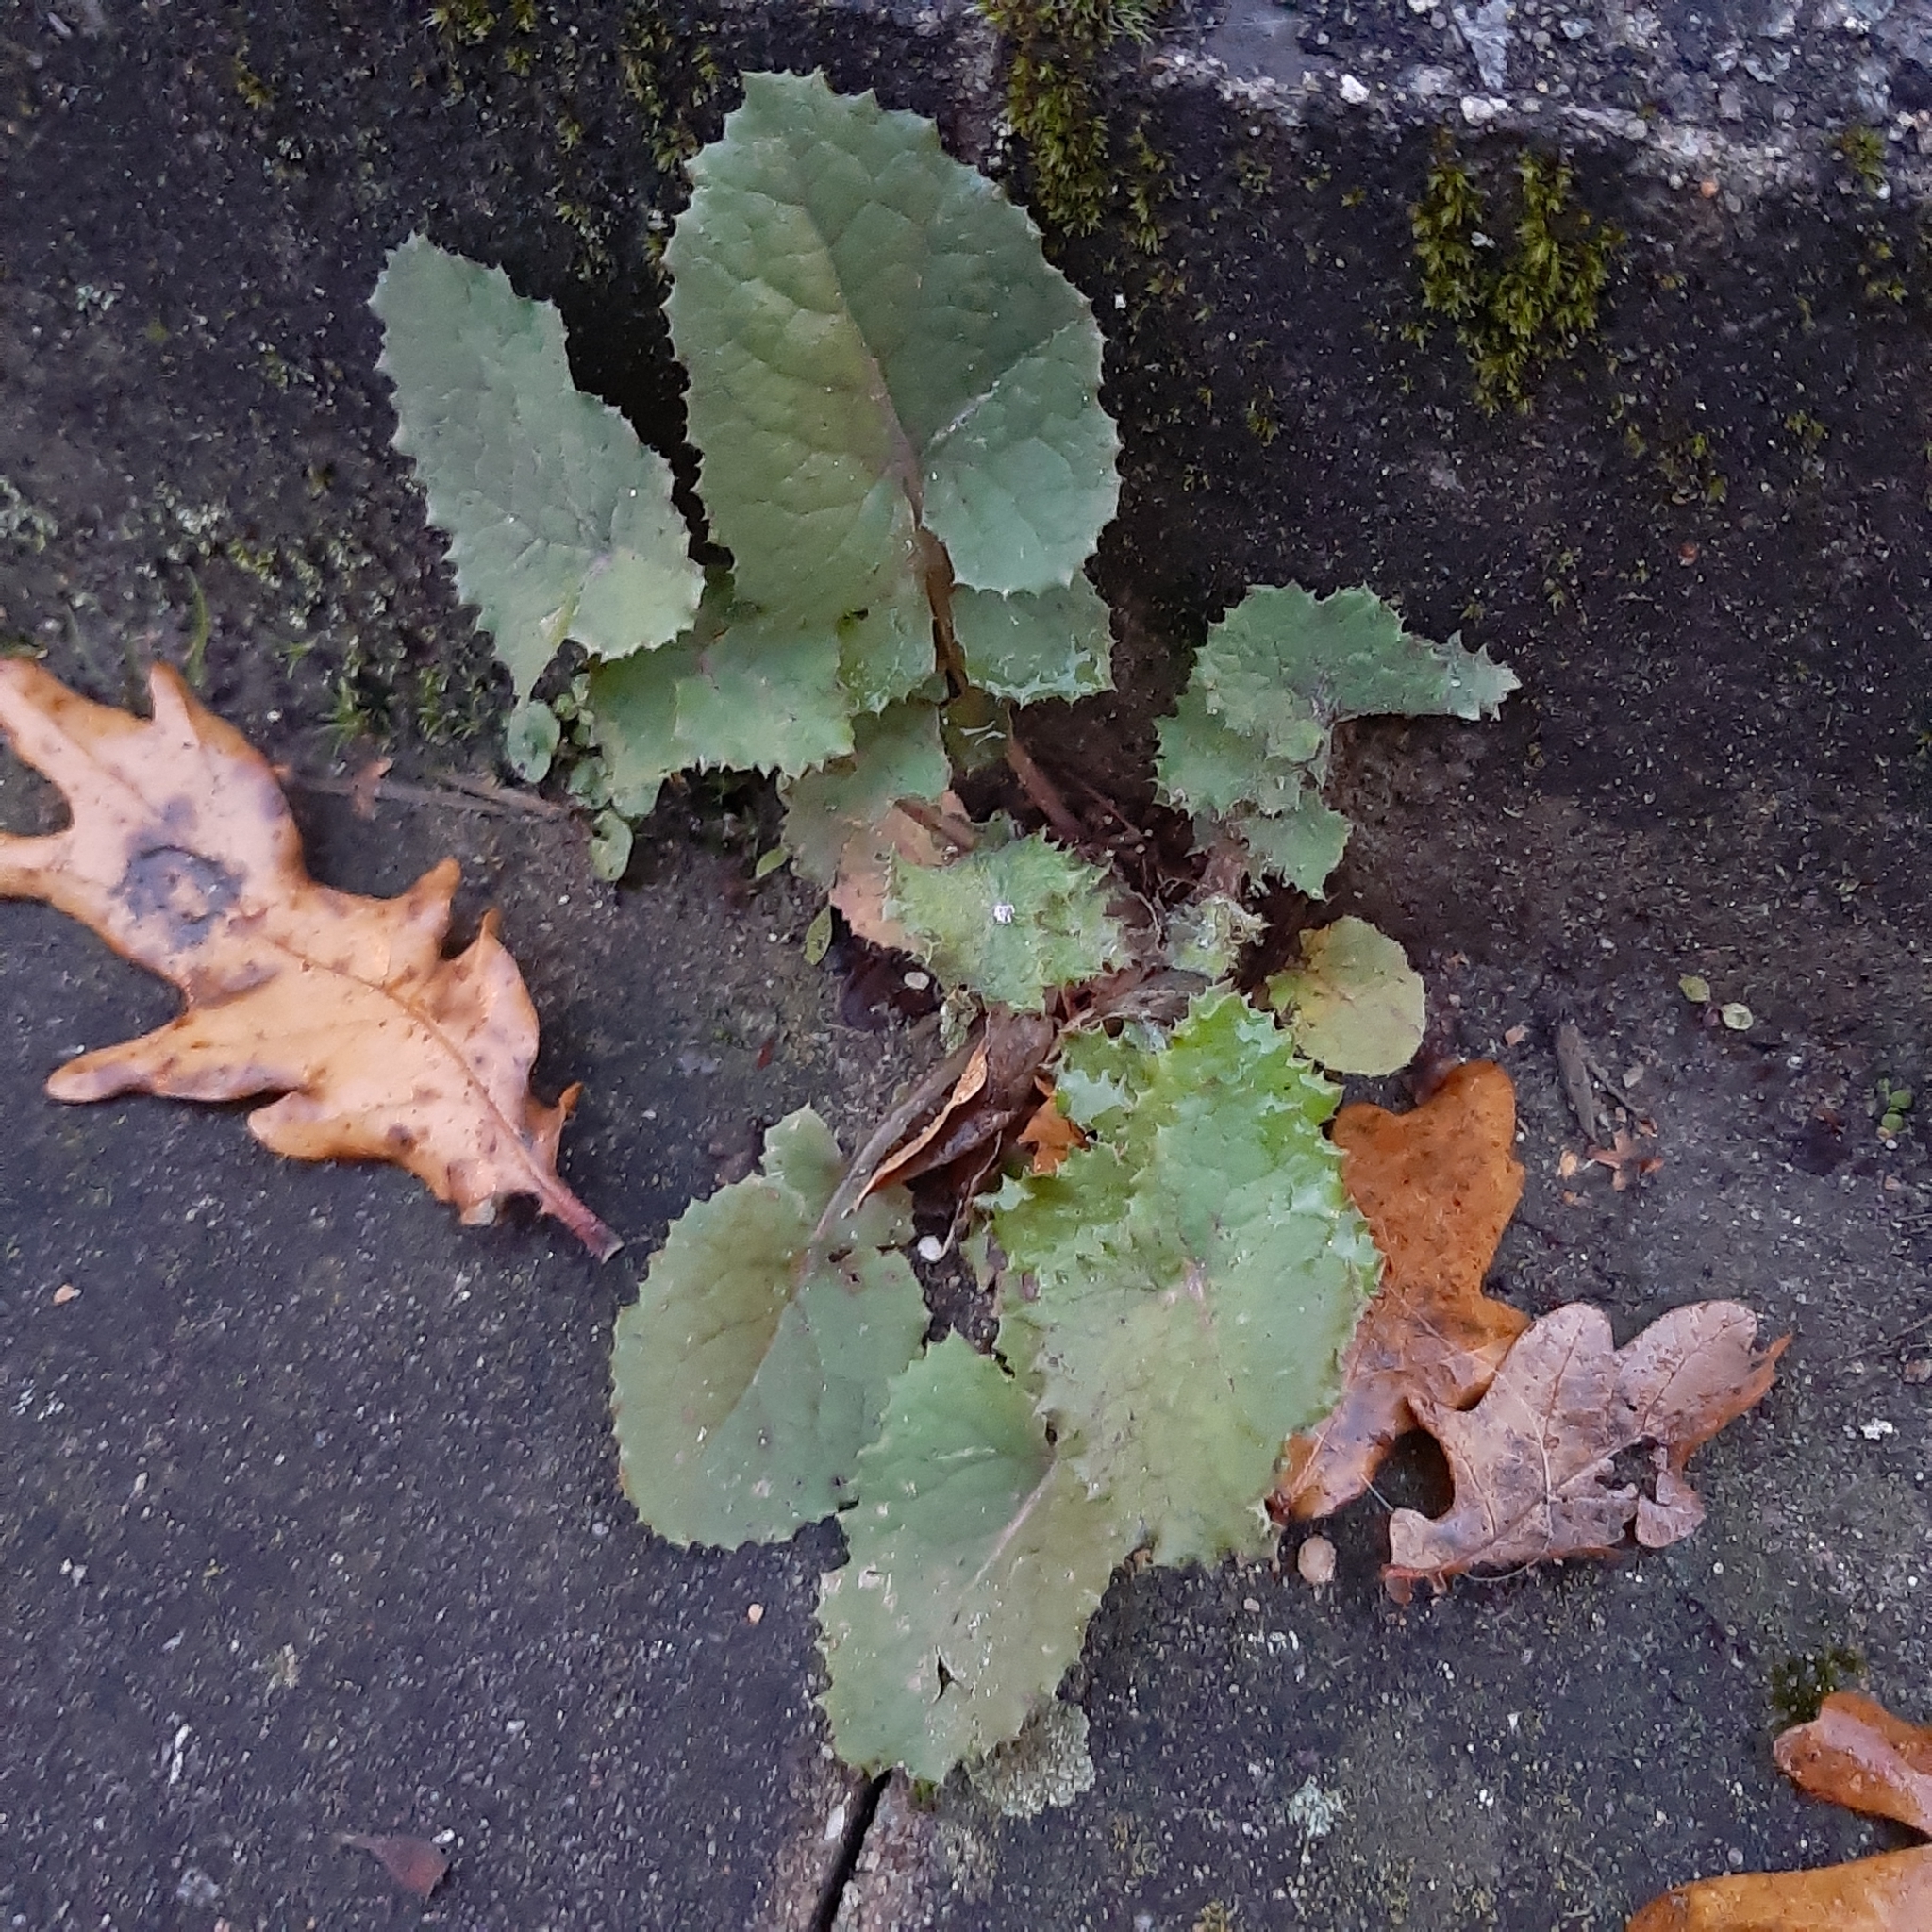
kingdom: Plantae
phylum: Tracheophyta
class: Magnoliopsida
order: Asterales
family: Asteraceae
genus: Sonchus
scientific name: Sonchus oleraceus
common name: Common sowthistle
